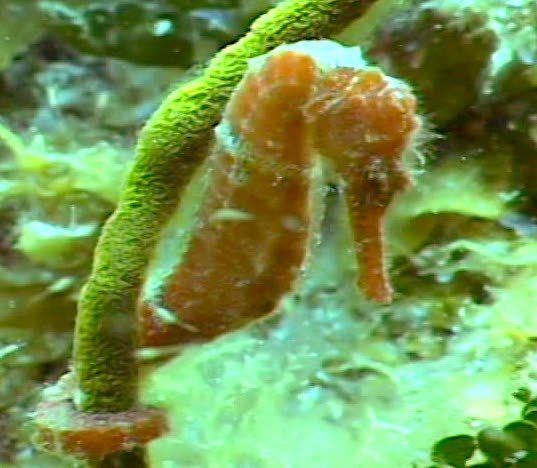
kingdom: Animalia
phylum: Chordata
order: Syngnathiformes
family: Syngnathidae
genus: Hippocampus
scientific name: Hippocampus reidi
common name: Slender seahorse
